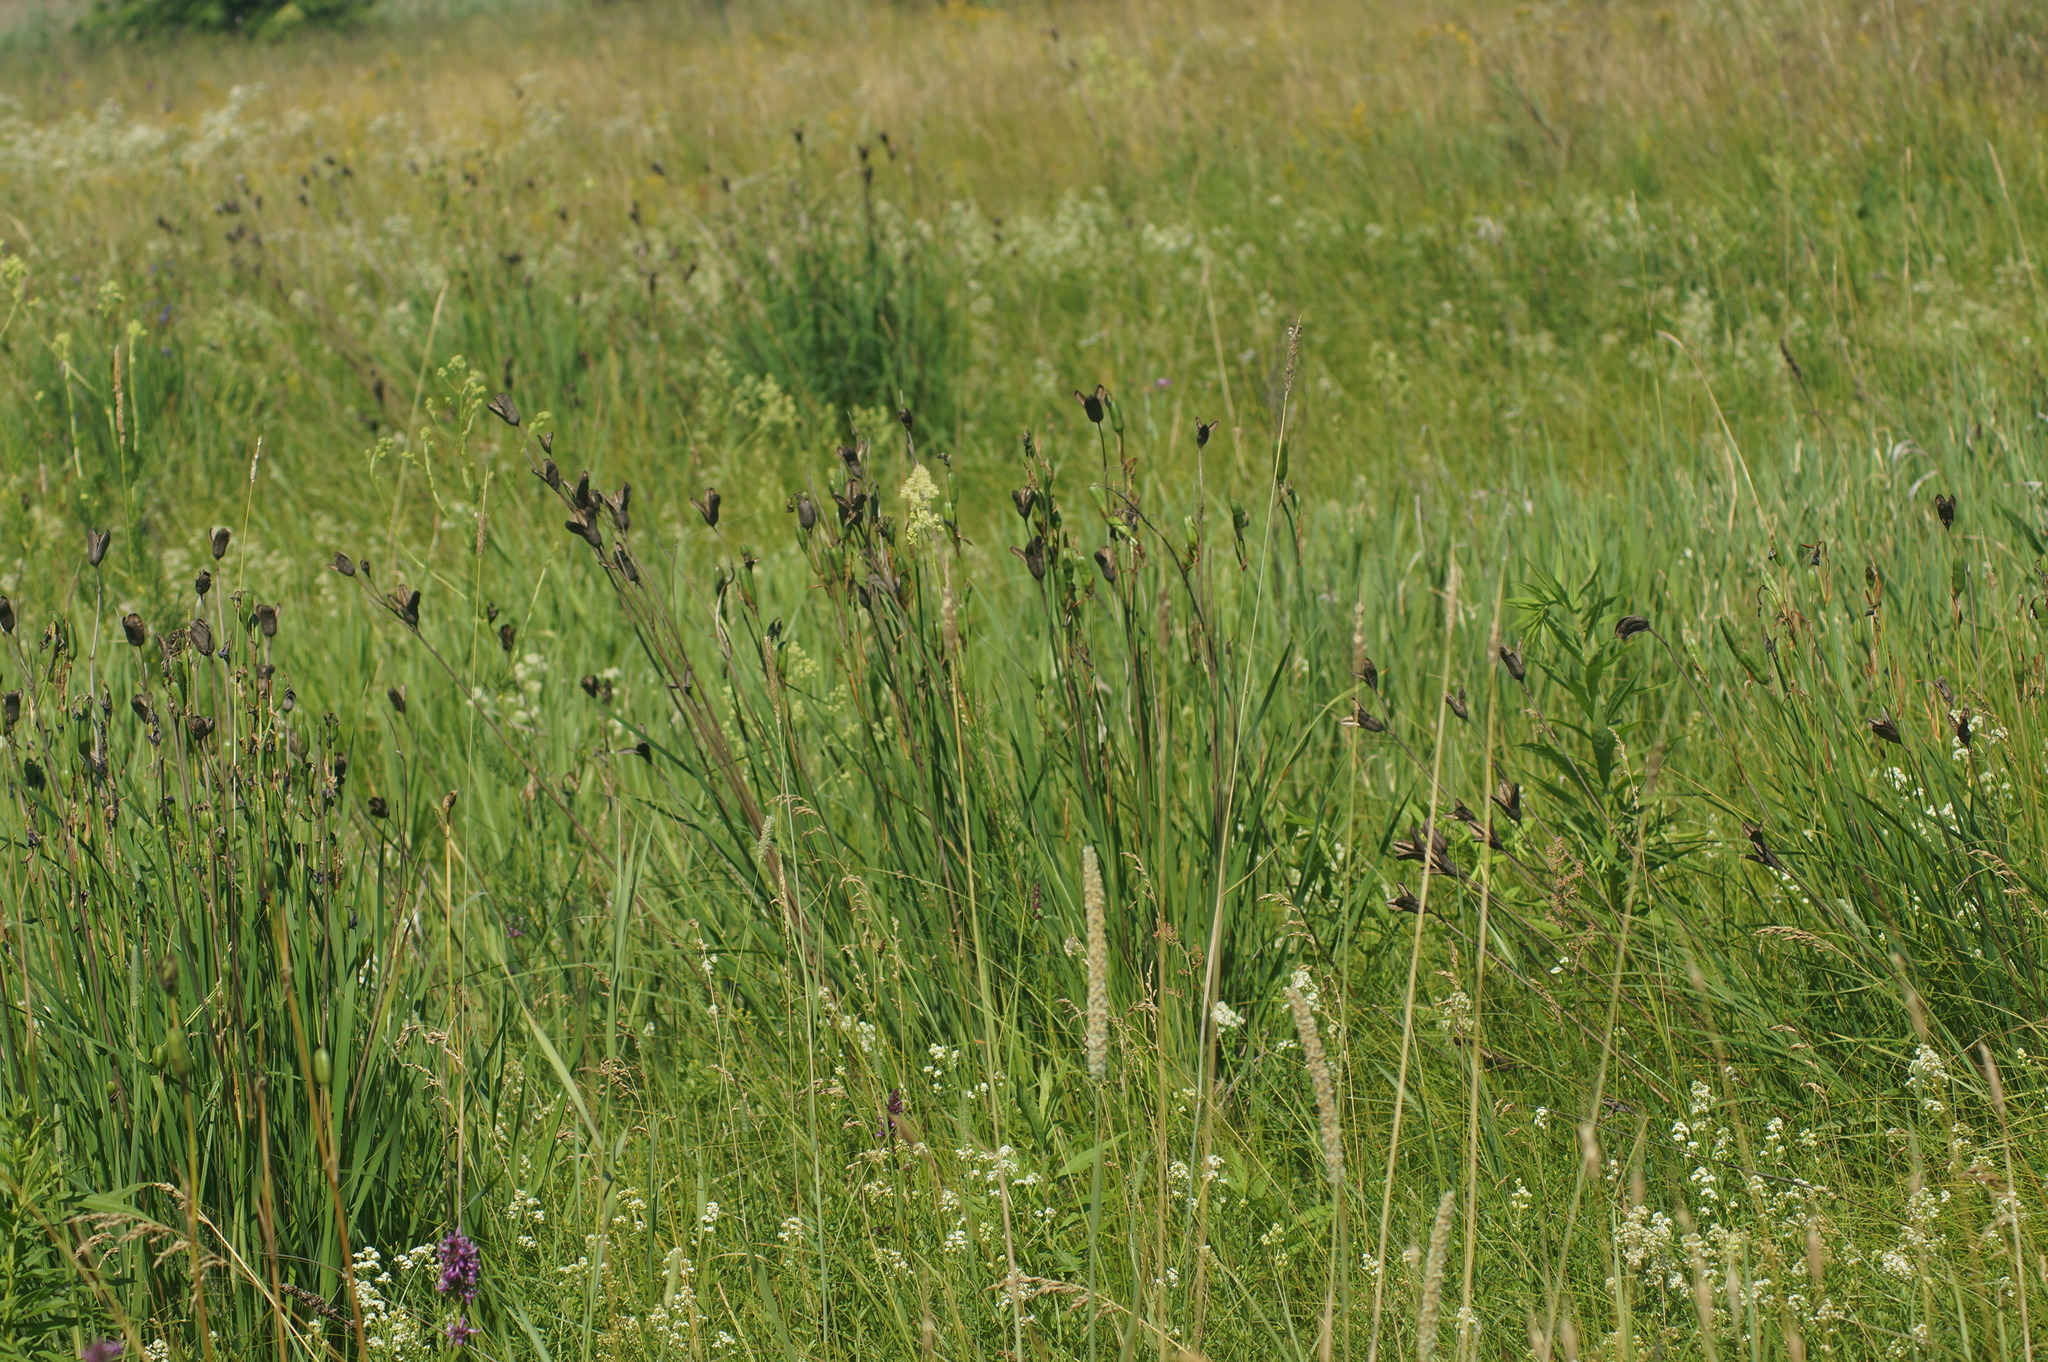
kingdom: Plantae
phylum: Tracheophyta
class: Liliopsida
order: Asparagales
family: Iridaceae
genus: Iris
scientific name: Iris sibirica
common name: Siberian iris
